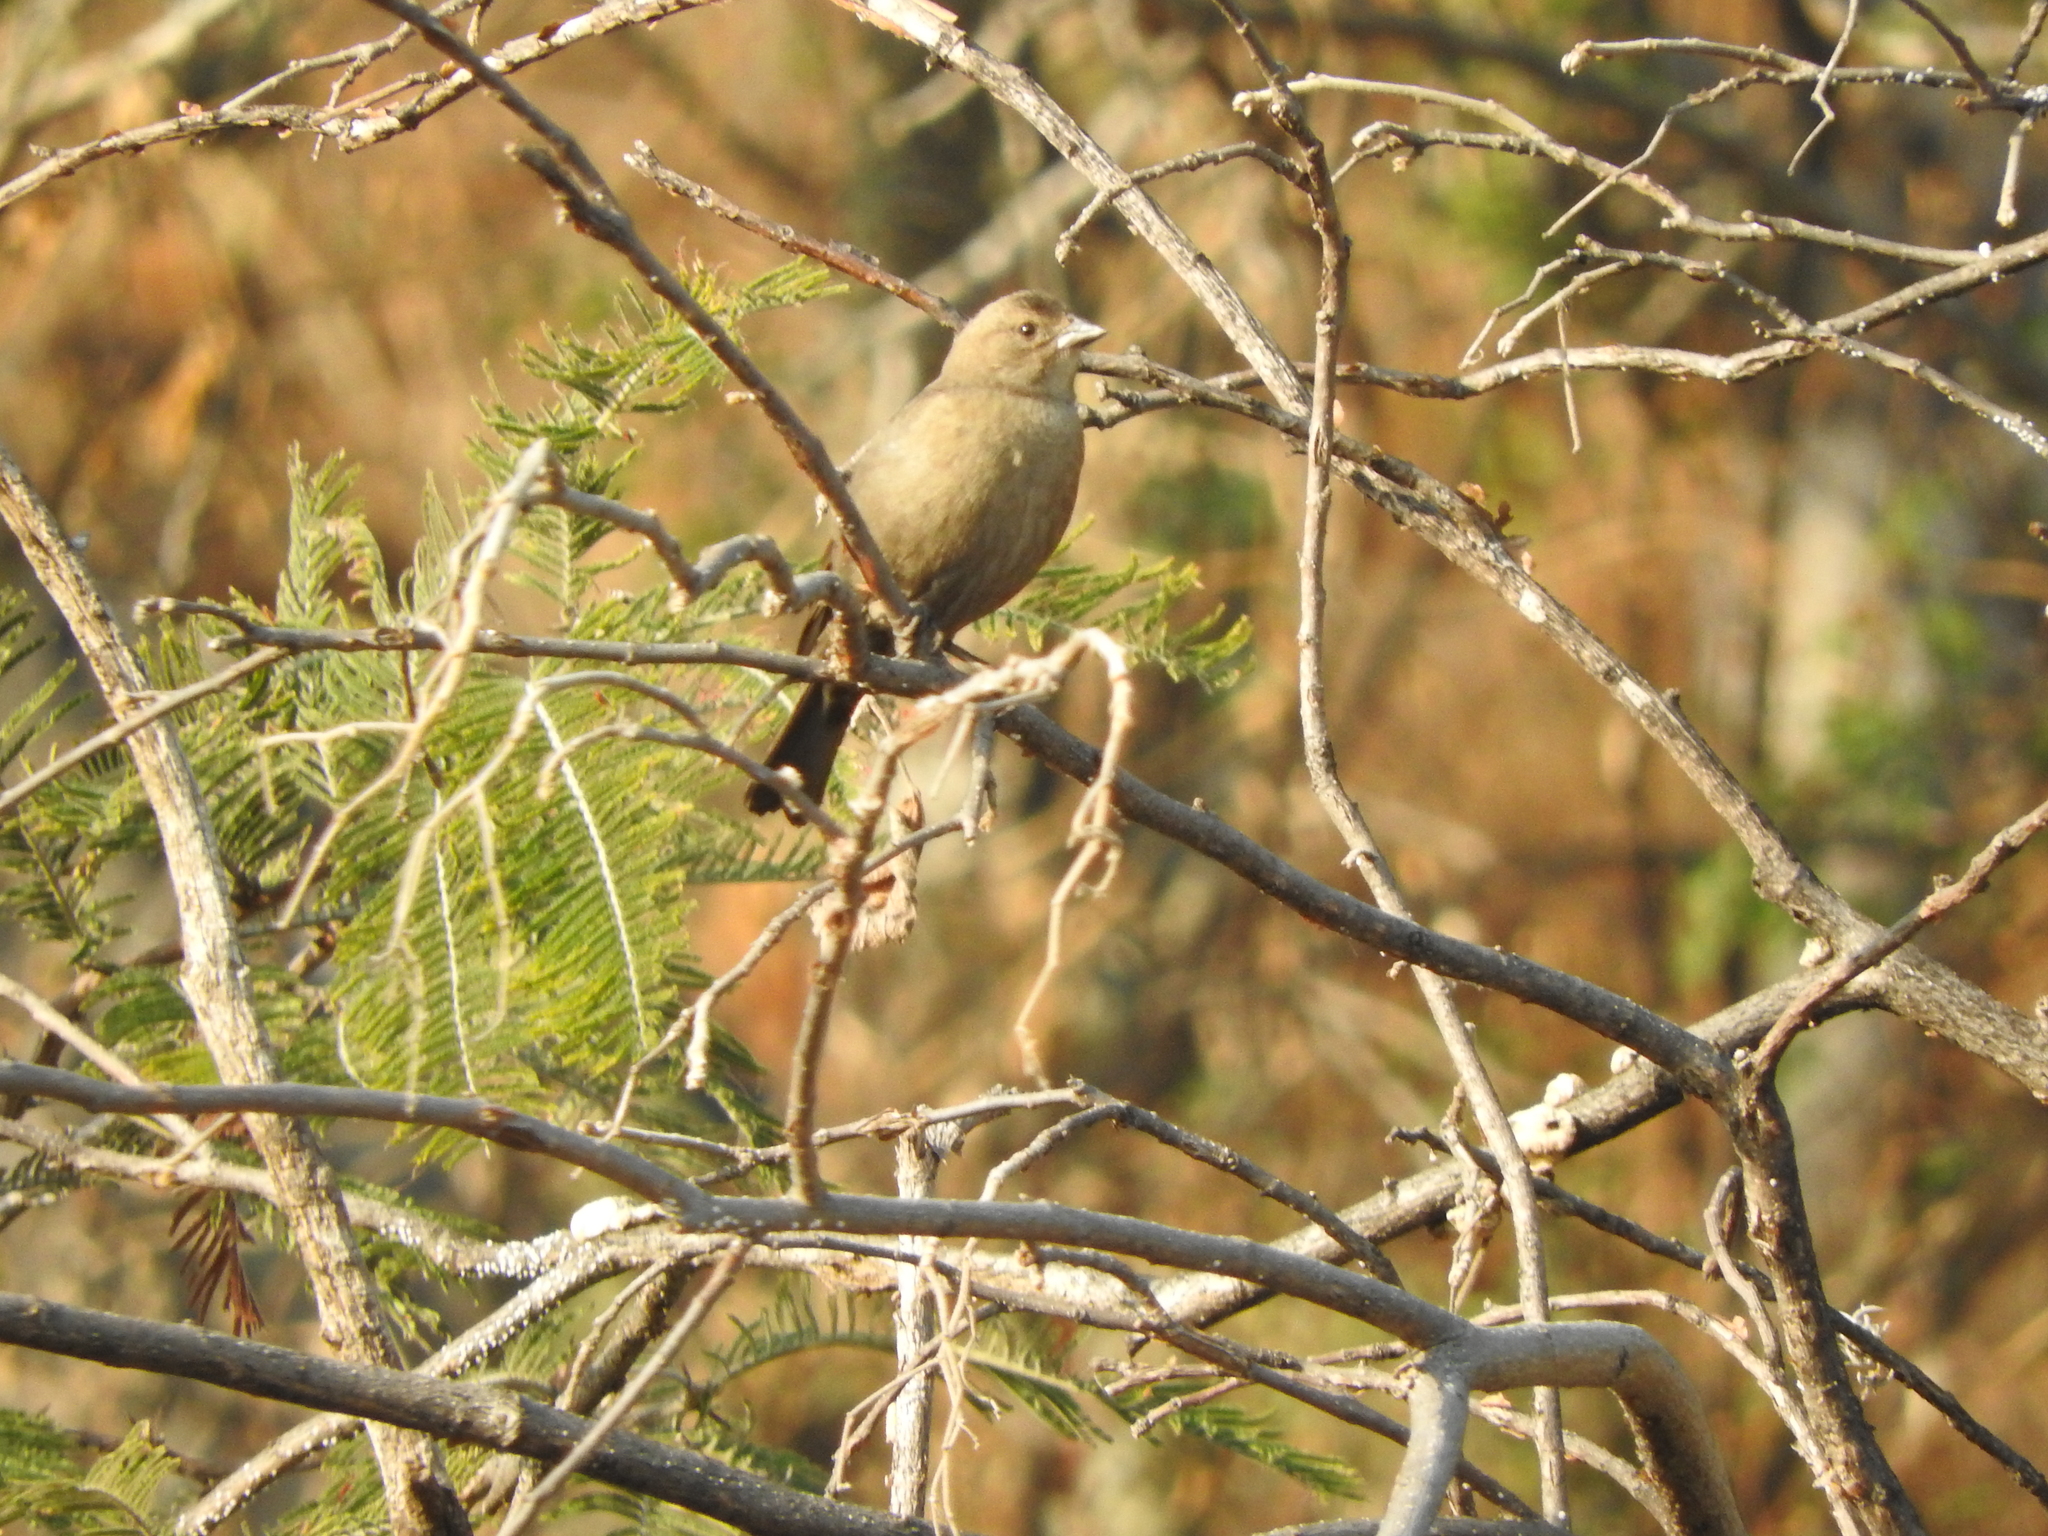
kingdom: Animalia
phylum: Chordata
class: Aves
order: Passeriformes
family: Icteridae
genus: Molothrus
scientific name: Molothrus ater
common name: Brown-headed cowbird
